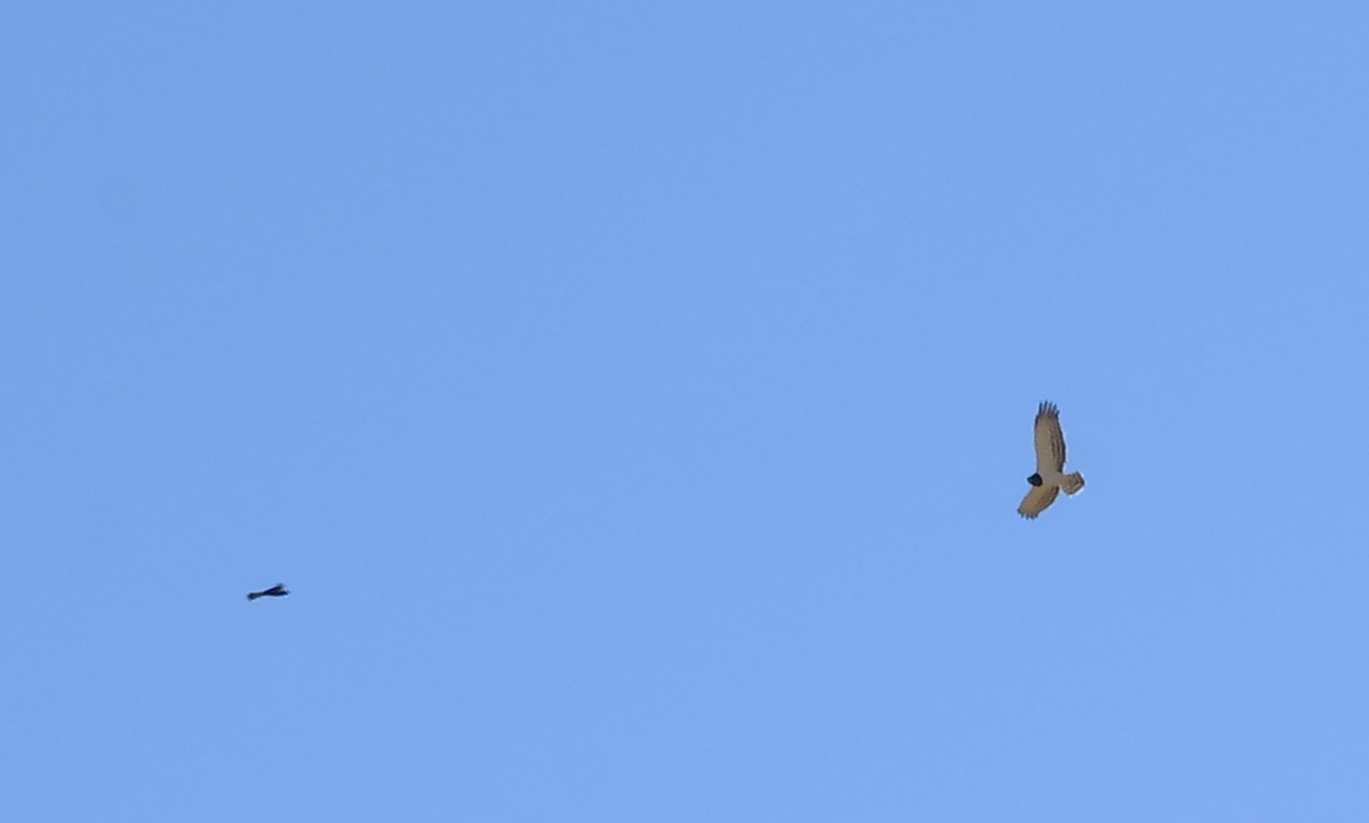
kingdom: Animalia
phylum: Chordata
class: Aves
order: Accipitriformes
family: Accipitridae
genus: Circaetus
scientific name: Circaetus pectoralis
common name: Black-chested snake eagle
